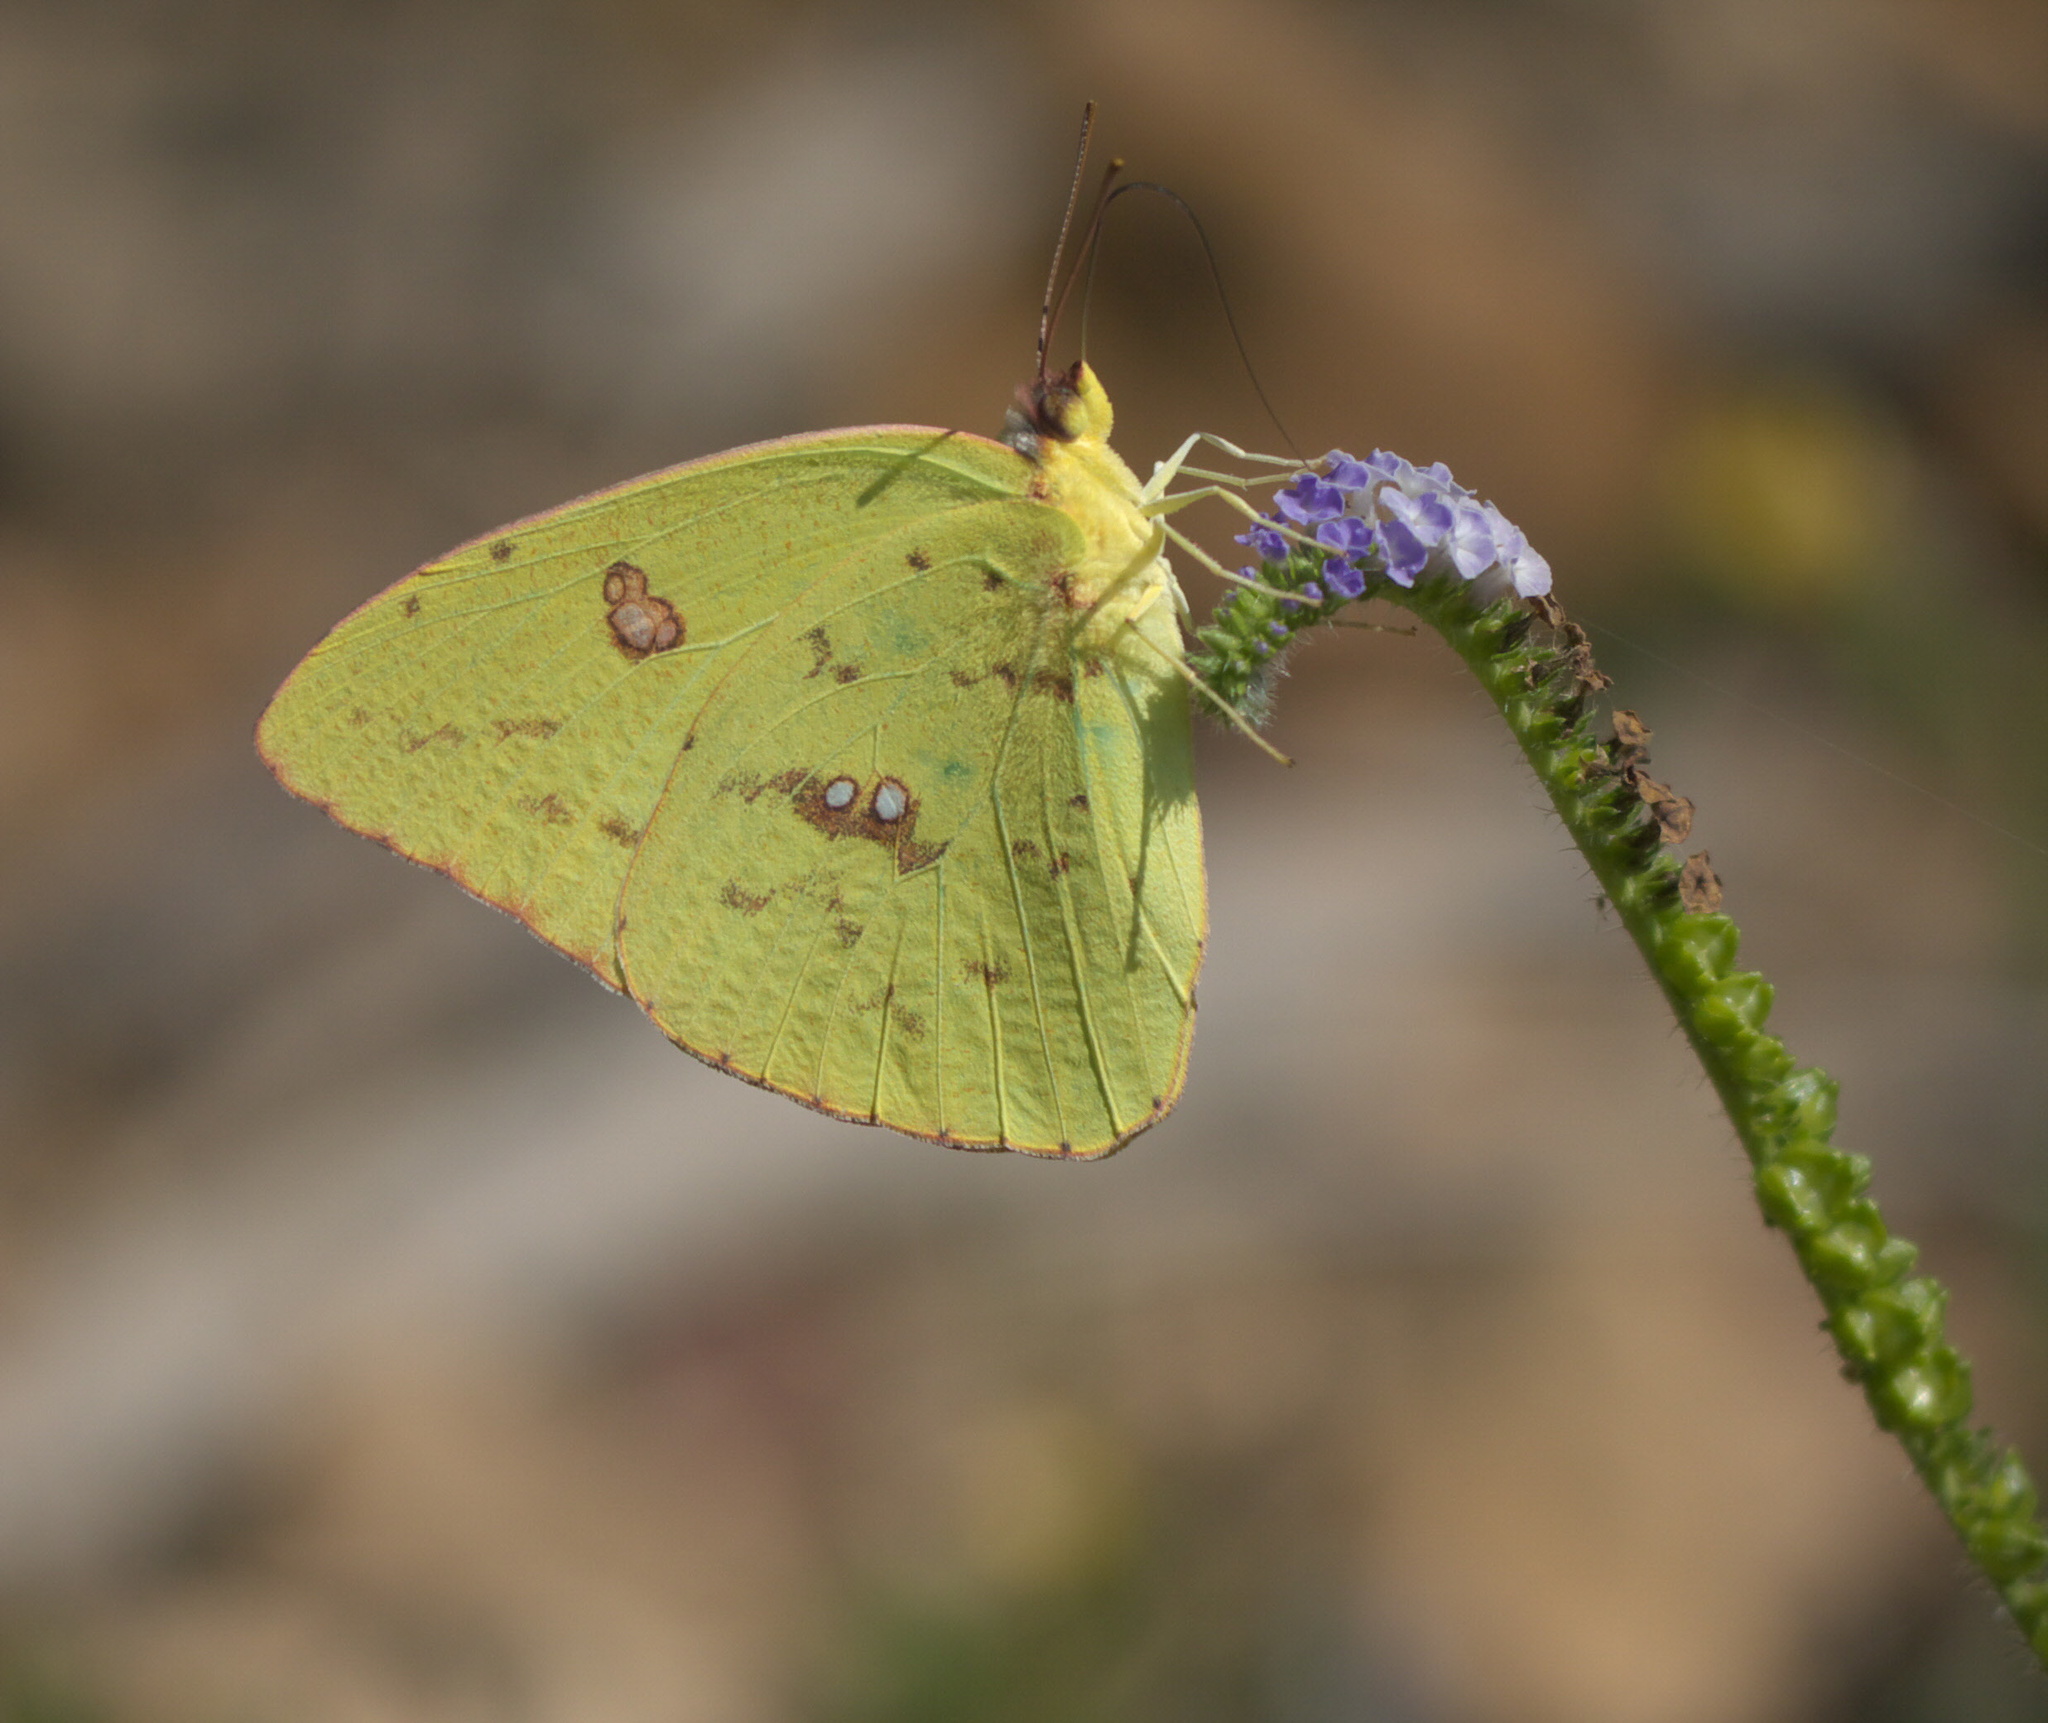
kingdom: Animalia
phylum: Arthropoda
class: Insecta
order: Lepidoptera
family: Pieridae
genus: Phoebis
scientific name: Phoebis sennae
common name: Cloudless sulphur
